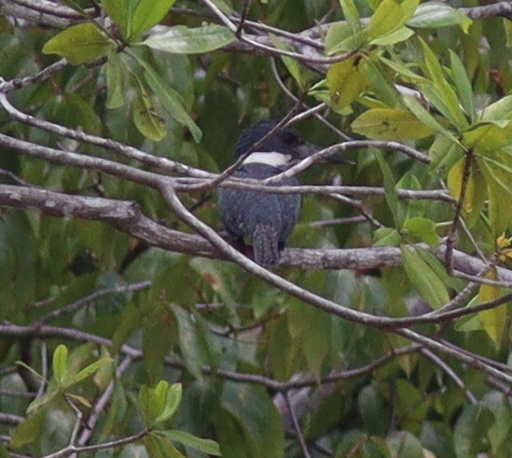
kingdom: Animalia
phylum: Chordata
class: Aves
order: Coraciiformes
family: Alcedinidae
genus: Megaceryle
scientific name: Megaceryle torquata
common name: Ringed kingfisher
